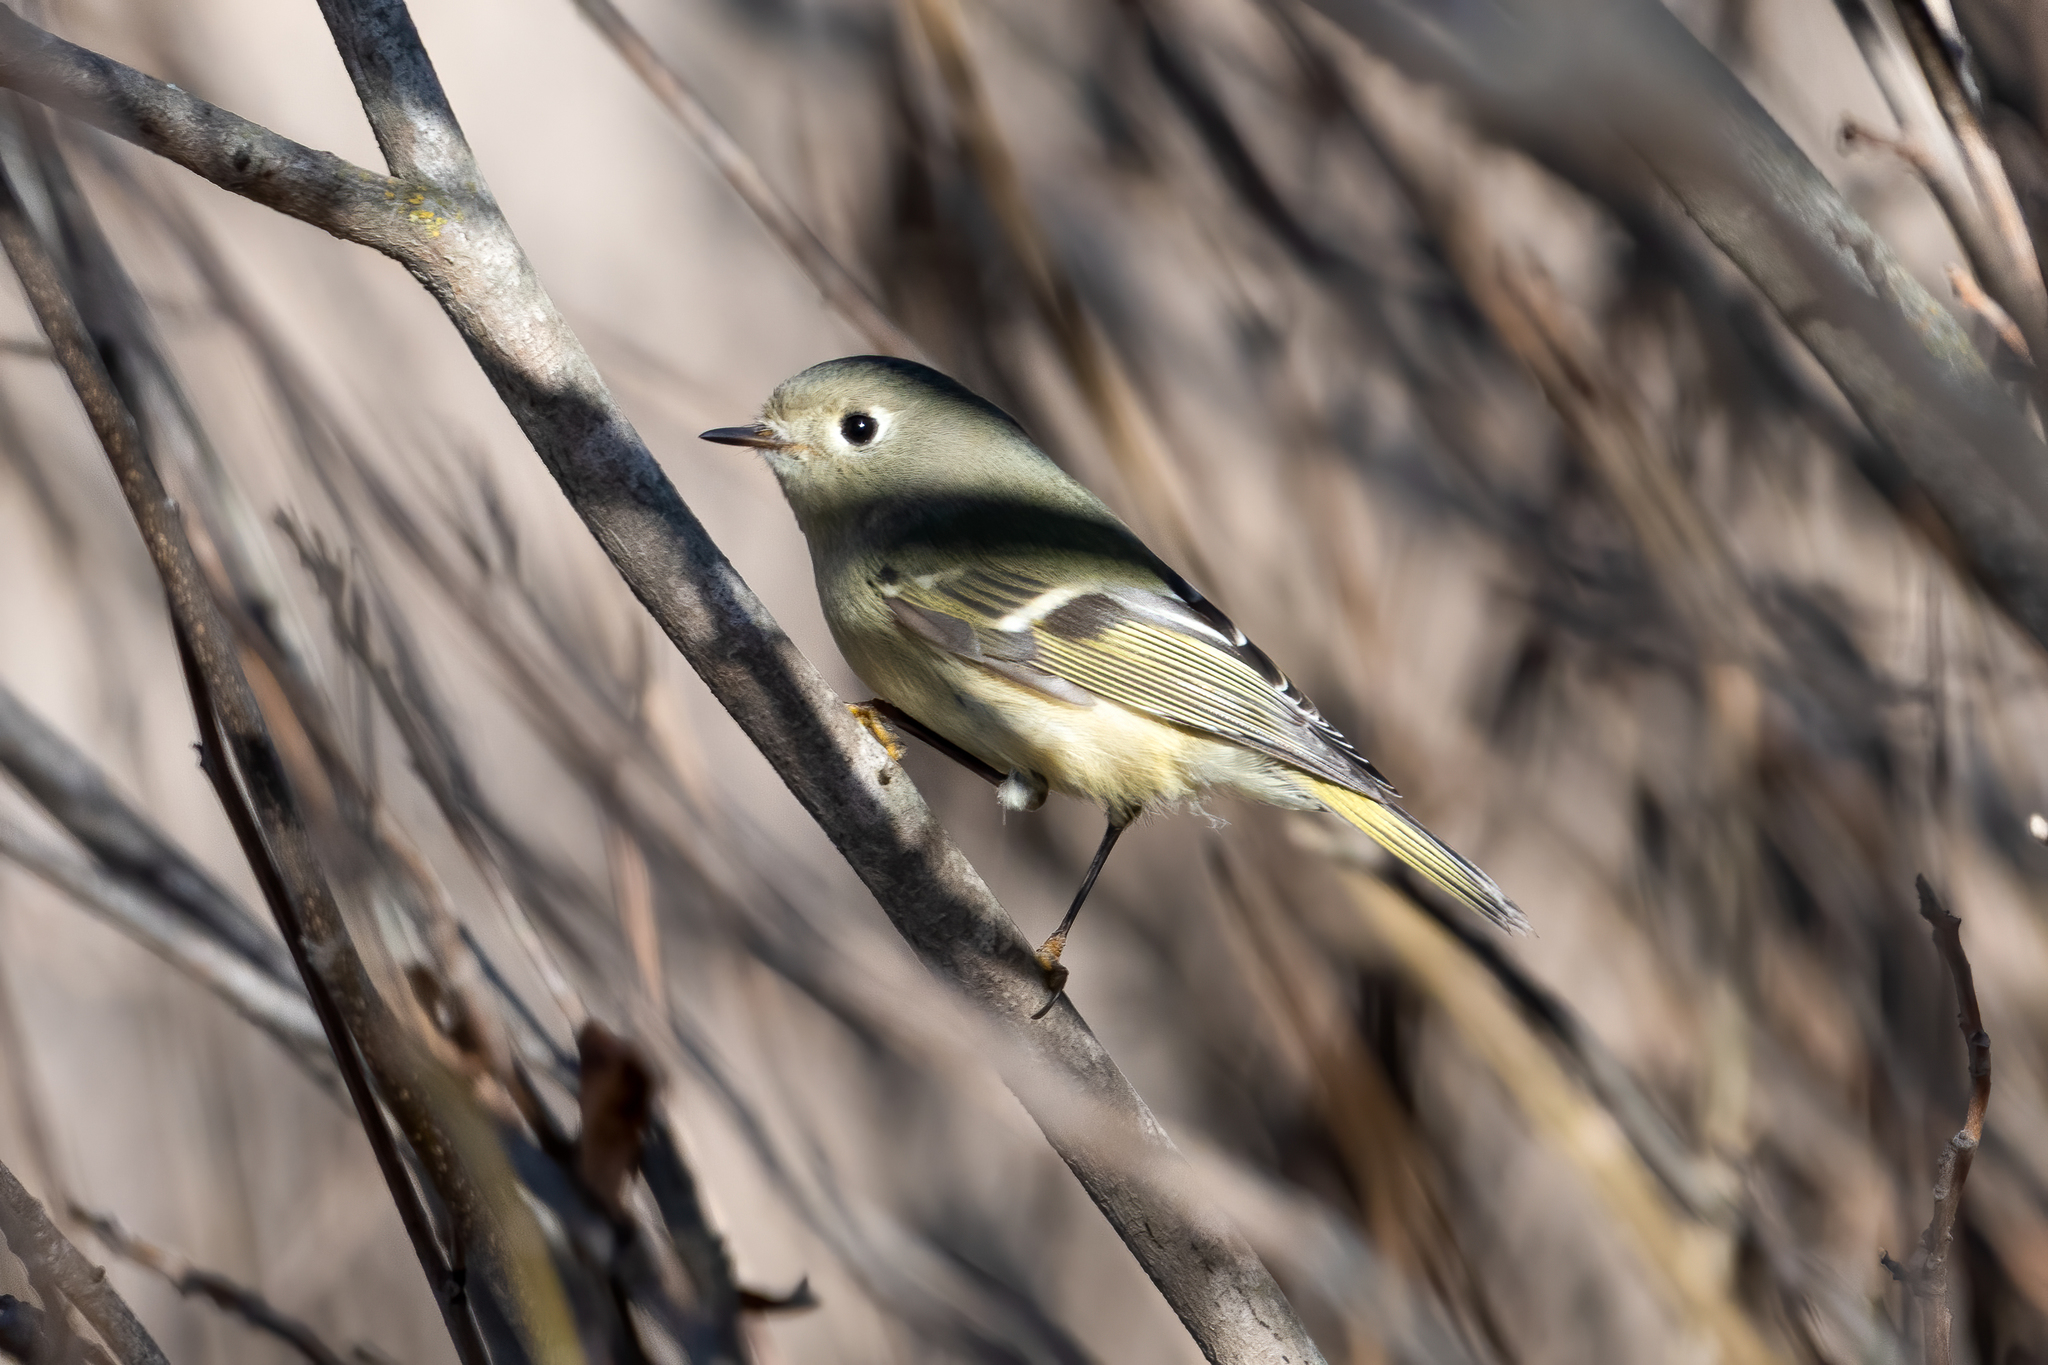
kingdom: Animalia
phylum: Chordata
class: Aves
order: Passeriformes
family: Regulidae
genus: Regulus
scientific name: Regulus calendula
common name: Ruby-crowned kinglet
